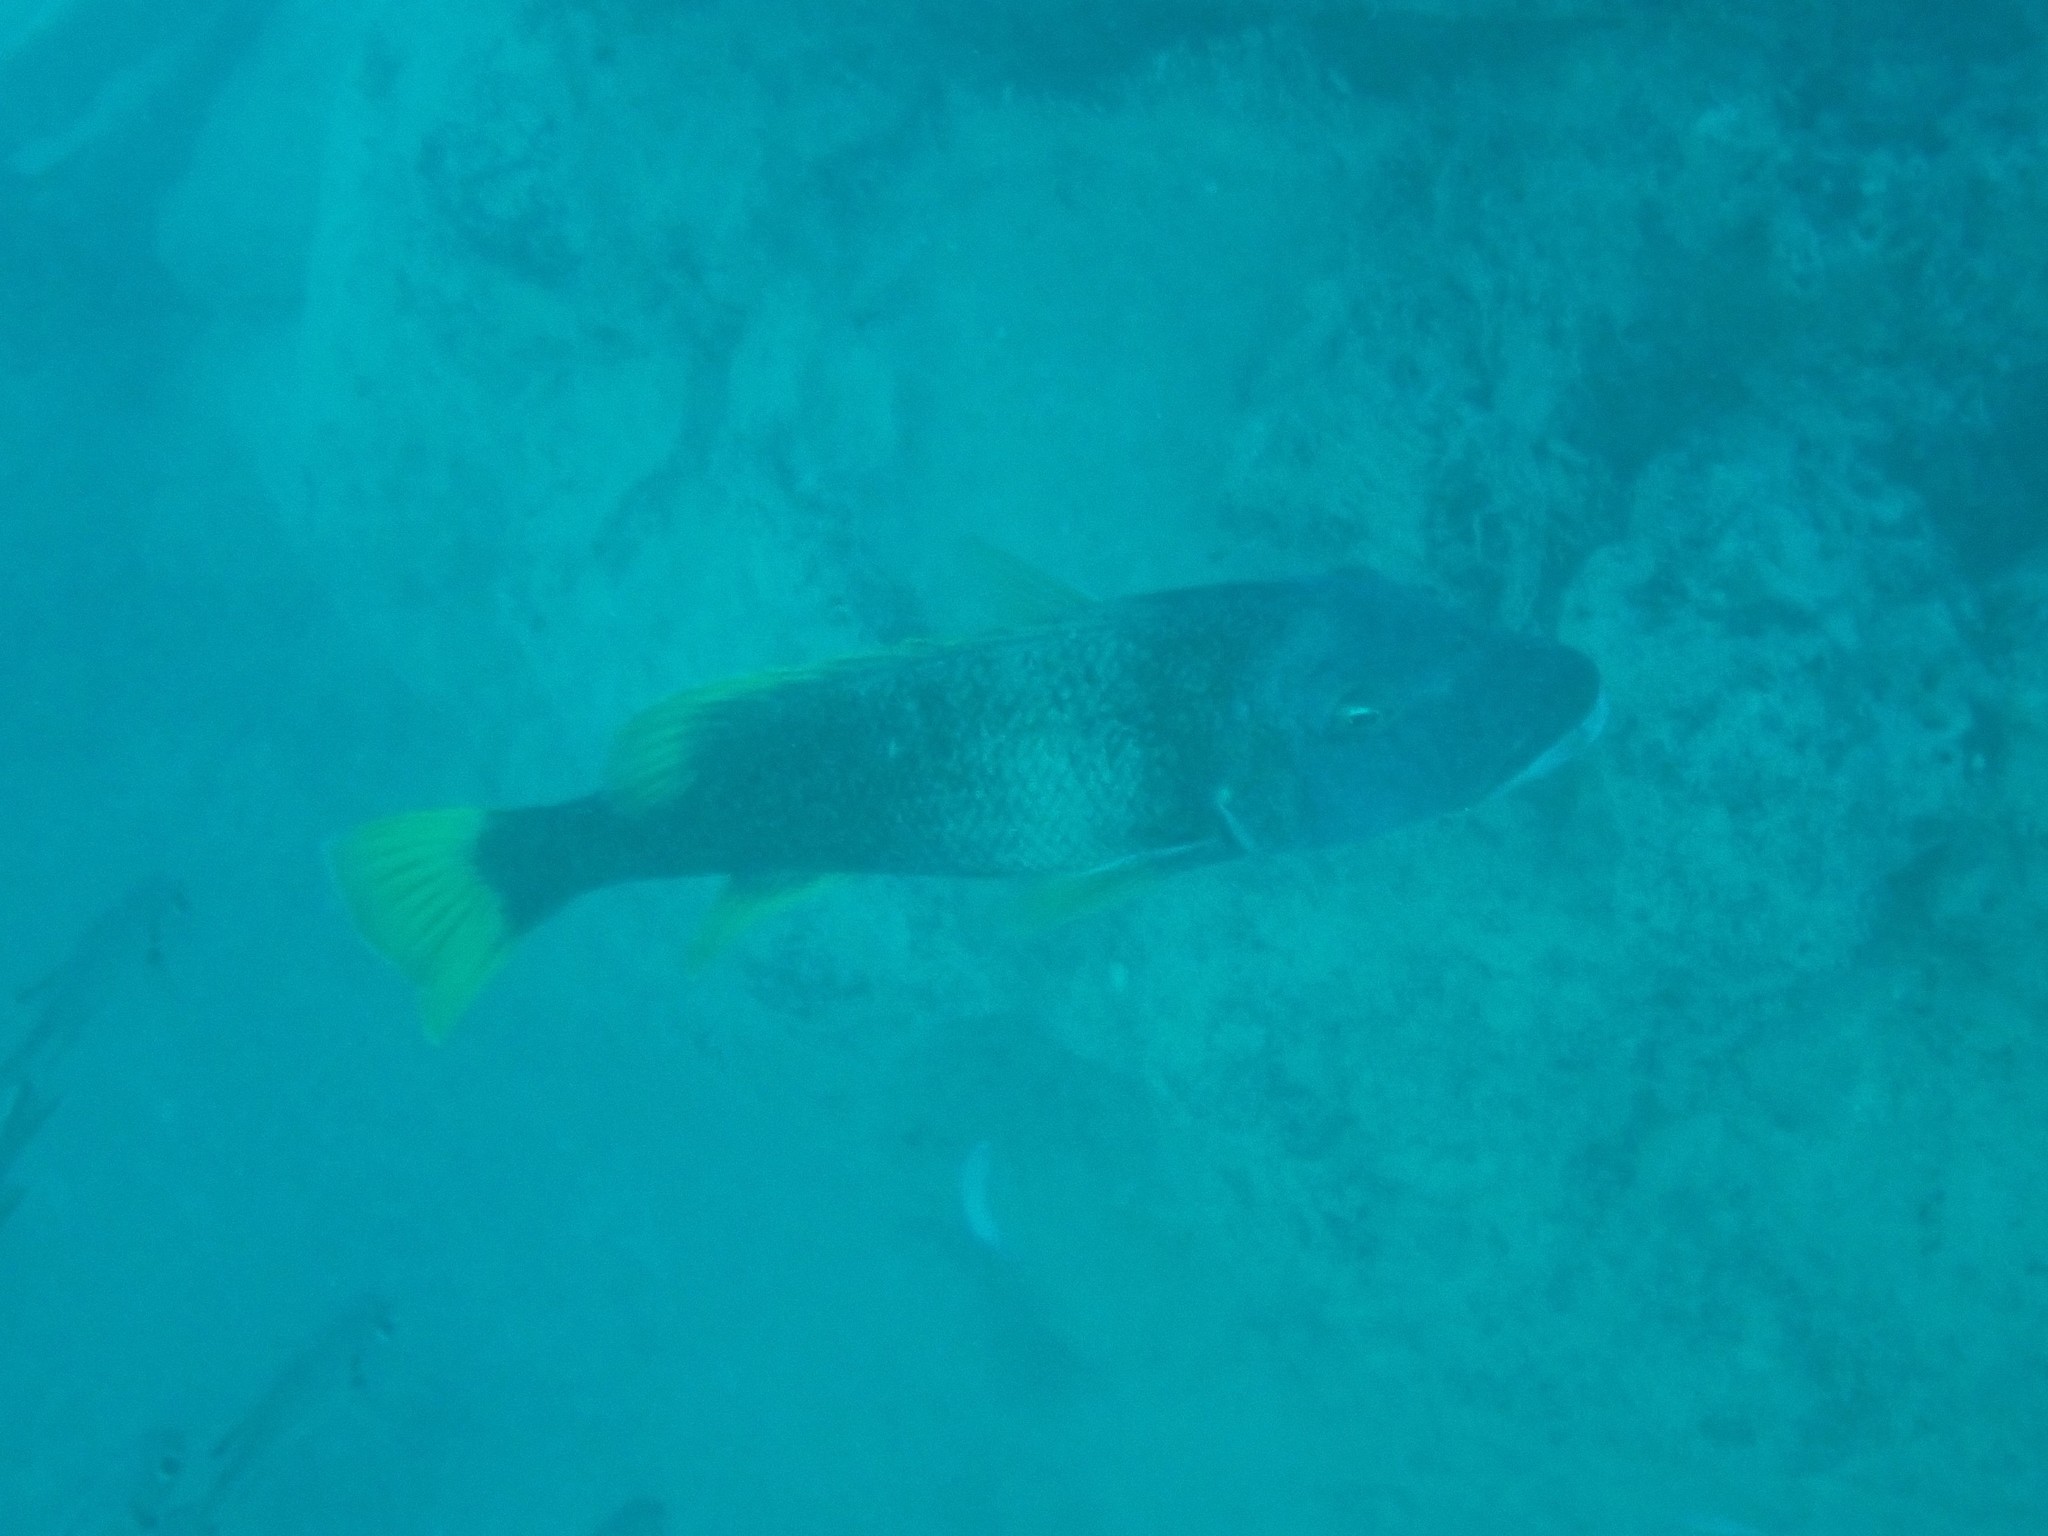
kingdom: Animalia
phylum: Chordata
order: Perciformes
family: Lethrinidae
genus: Lethrinus
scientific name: Lethrinus erythracanthus
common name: Orange-spotted emperor
